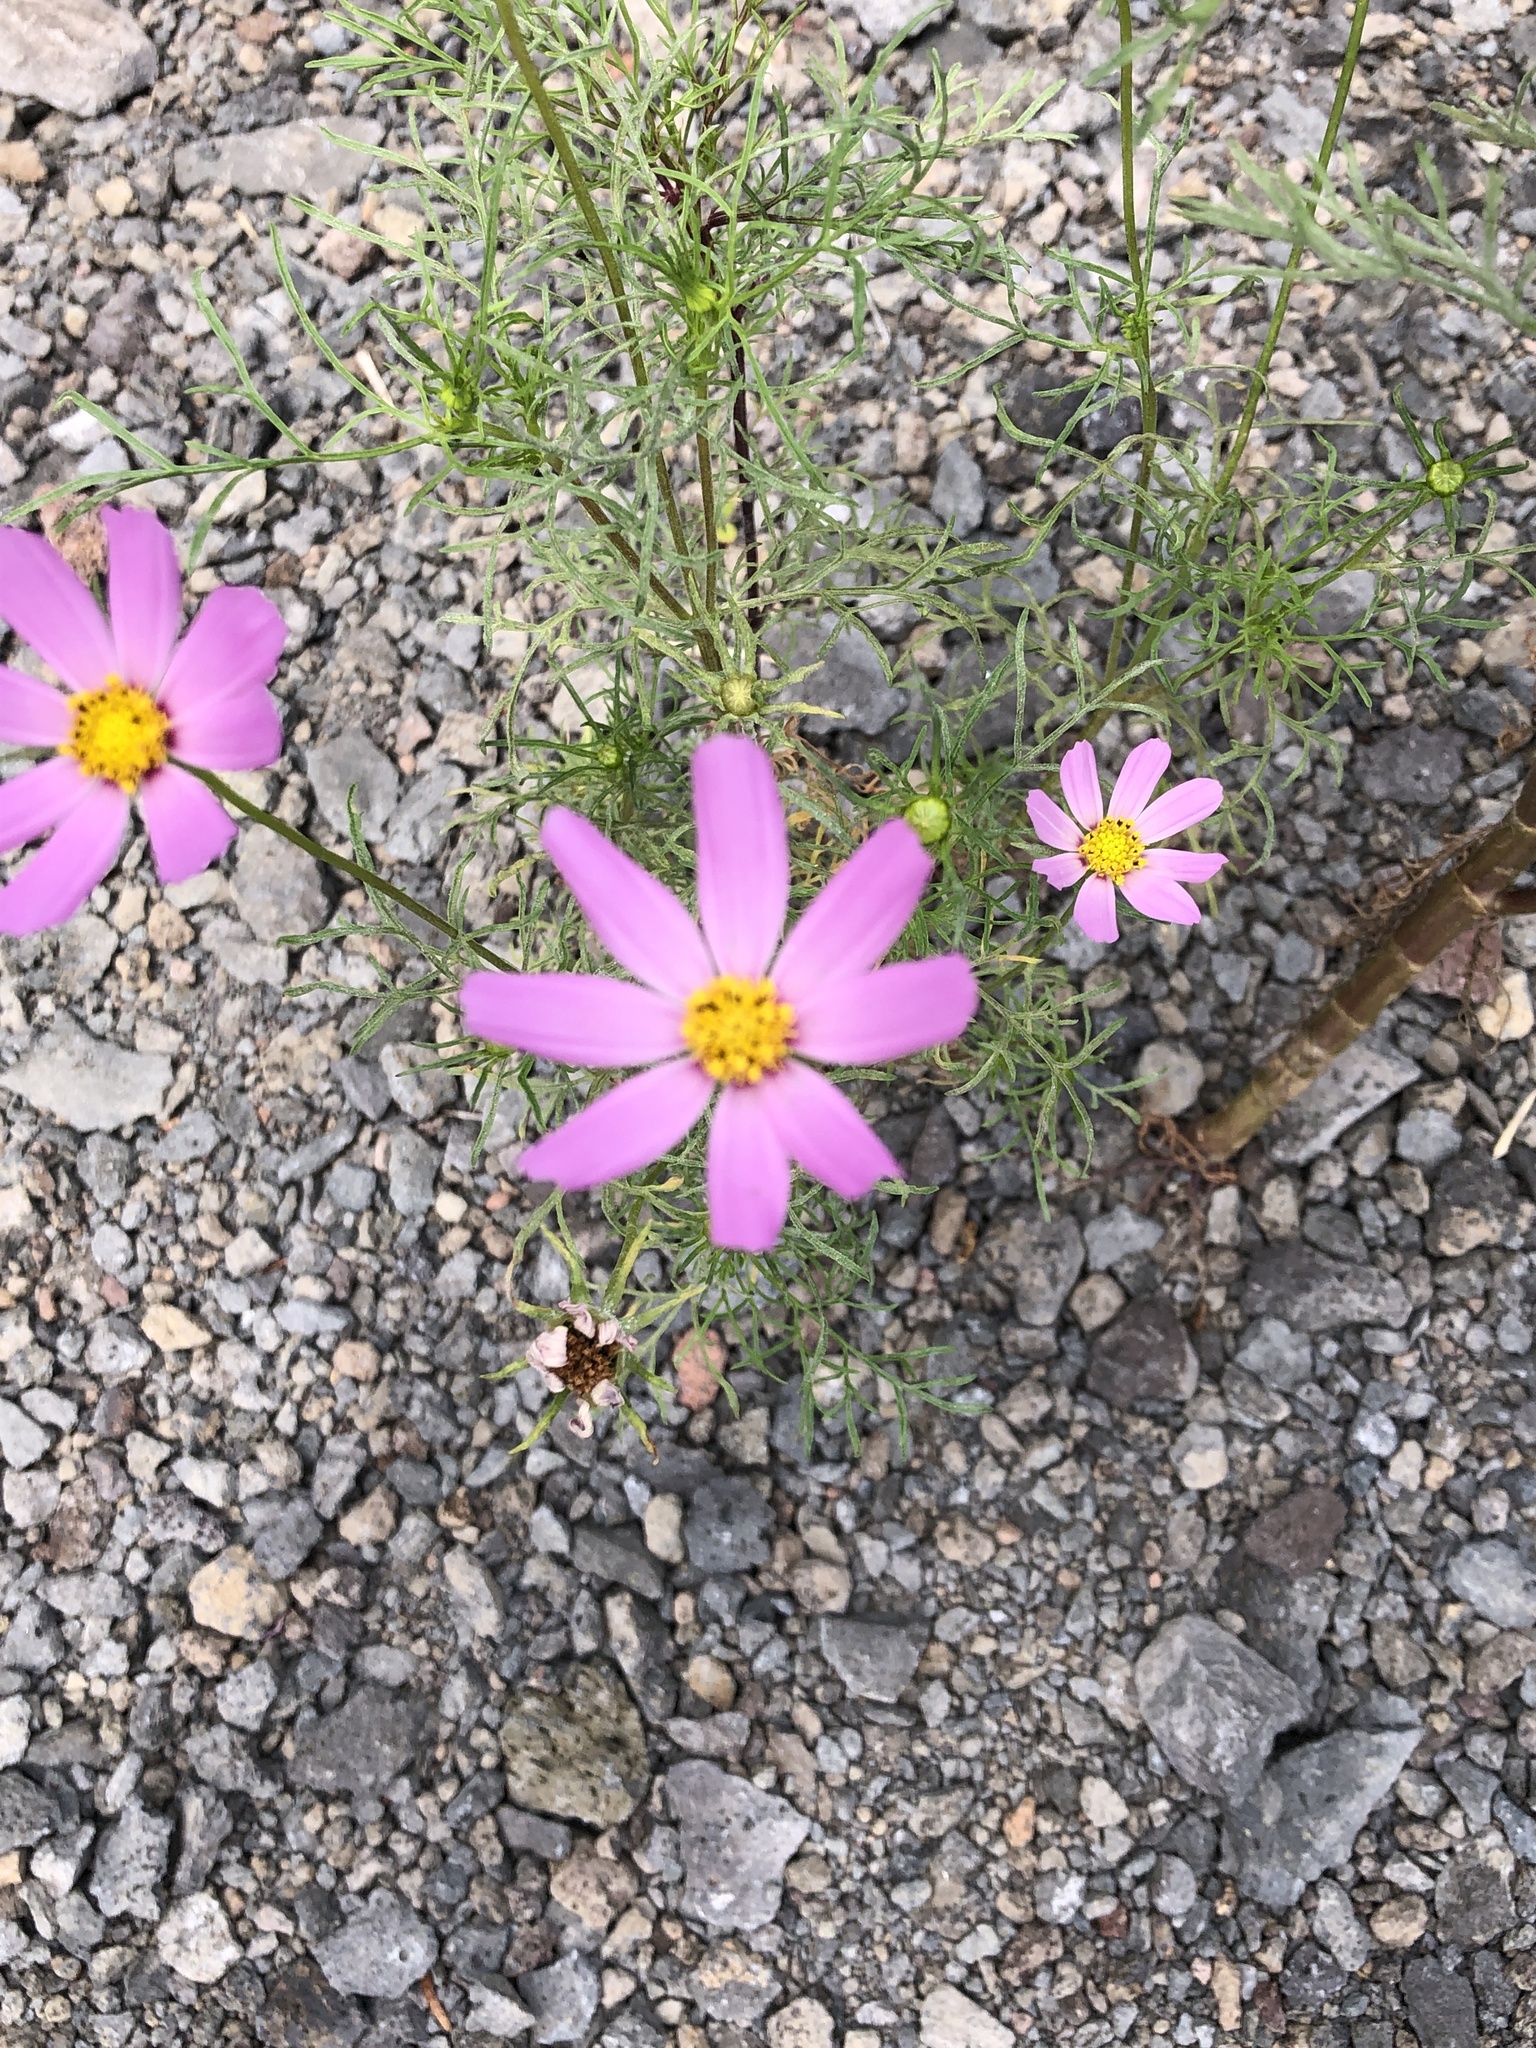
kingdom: Plantae
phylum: Tracheophyta
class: Magnoliopsida
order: Asterales
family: Asteraceae
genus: Cosmos
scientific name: Cosmos bipinnatus
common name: Garden cosmos
